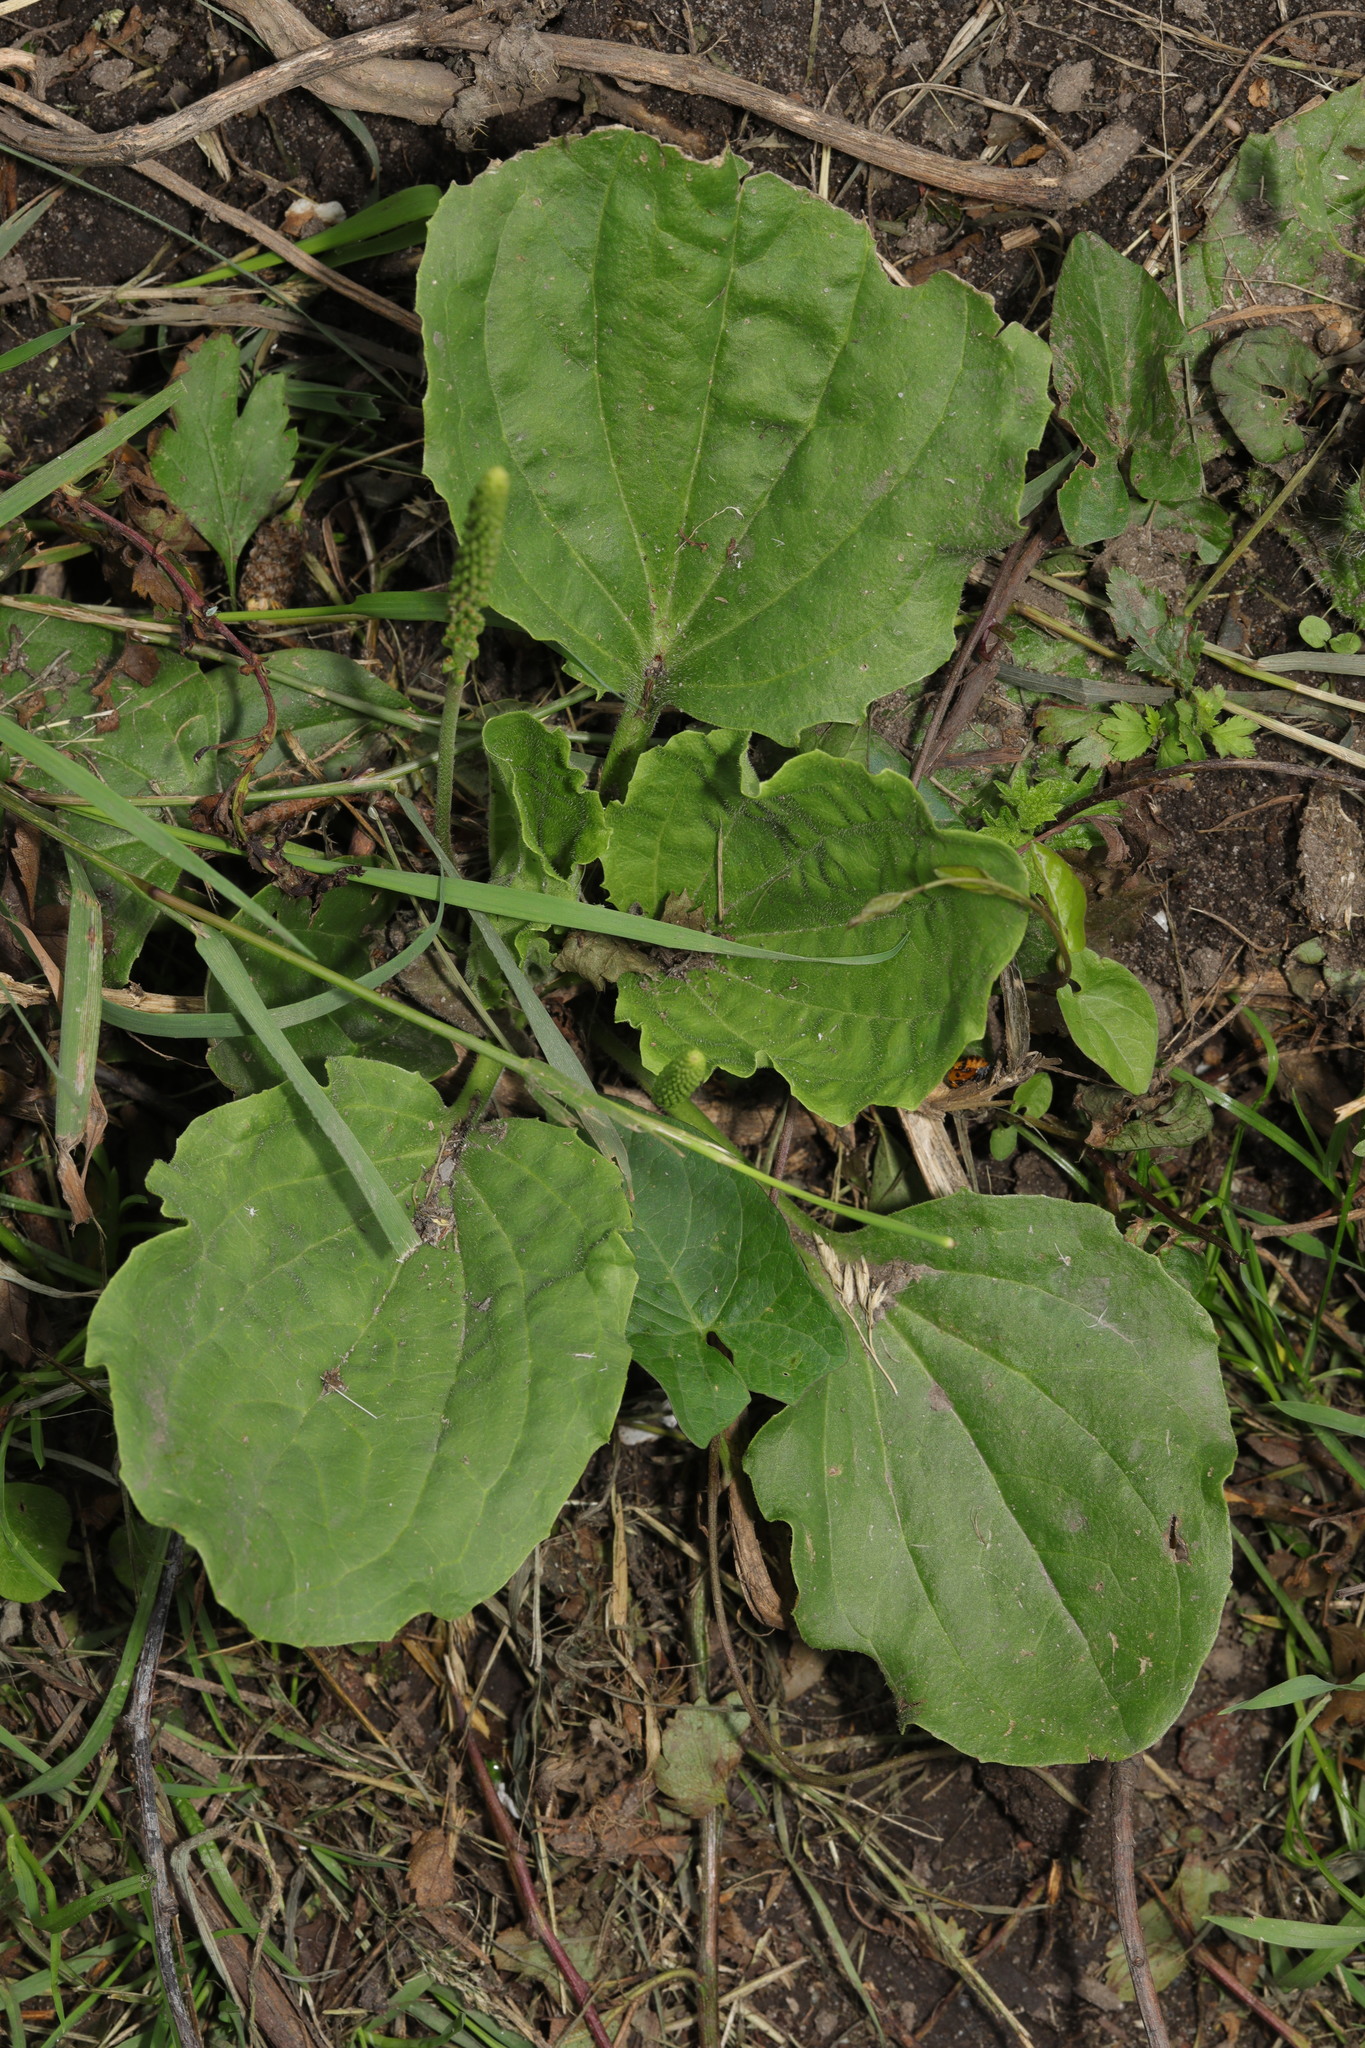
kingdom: Plantae
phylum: Tracheophyta
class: Magnoliopsida
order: Lamiales
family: Plantaginaceae
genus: Plantago
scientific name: Plantago major
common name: Common plantain
